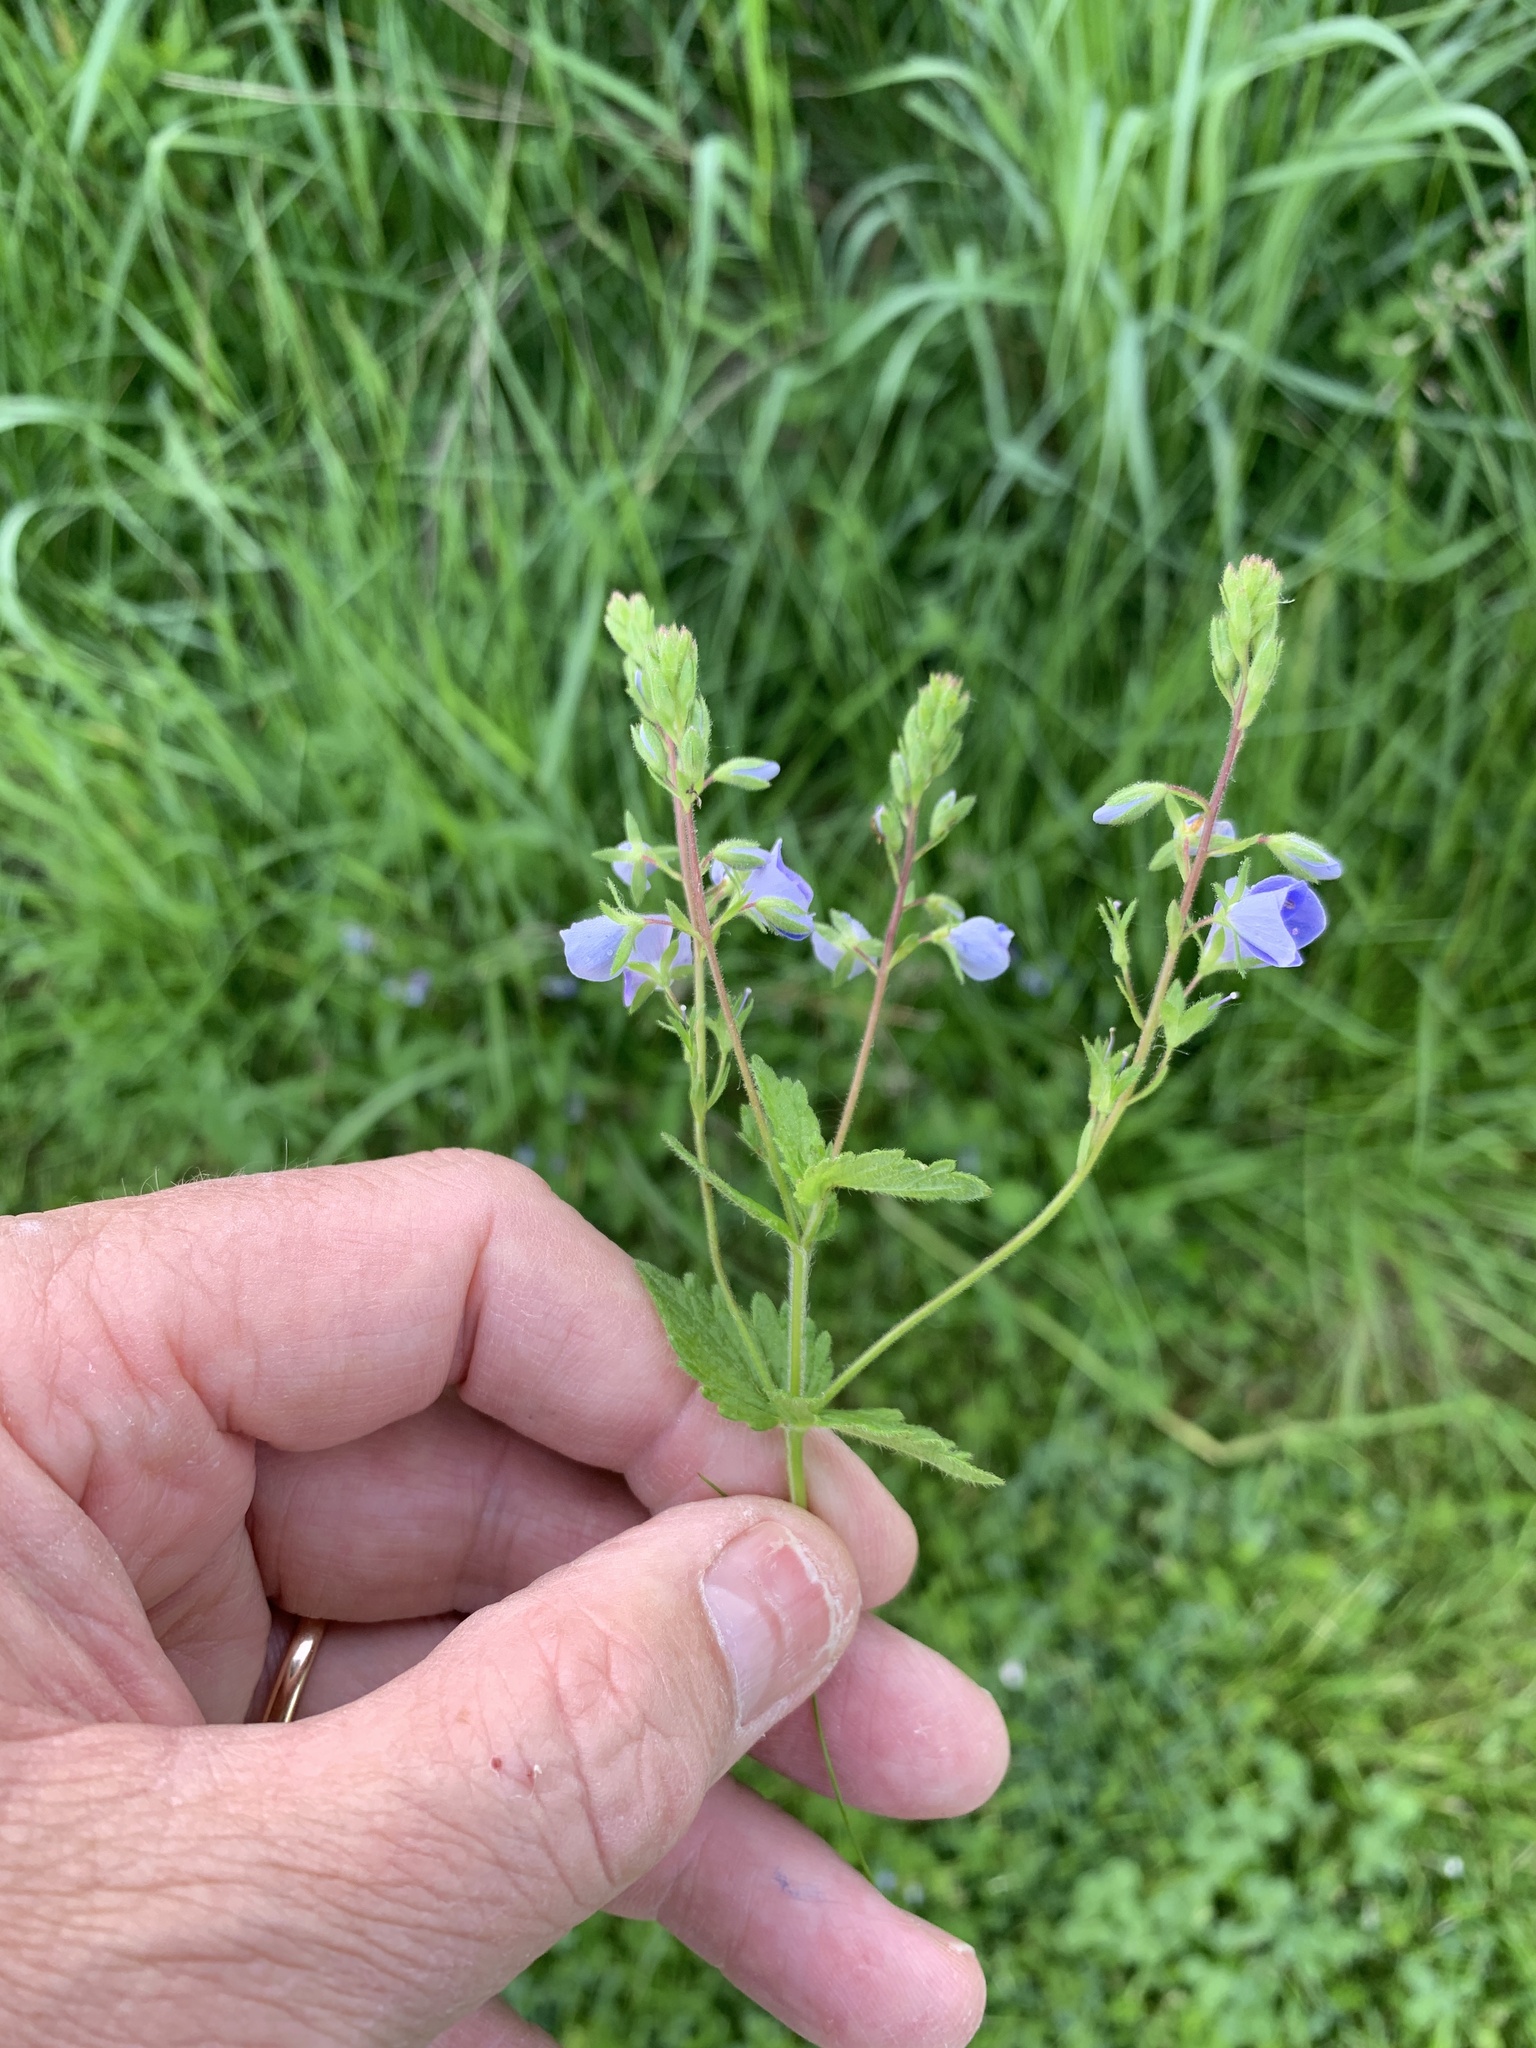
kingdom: Plantae
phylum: Tracheophyta
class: Magnoliopsida
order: Lamiales
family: Plantaginaceae
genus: Veronica
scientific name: Veronica chamaedrys
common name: Germander speedwell
